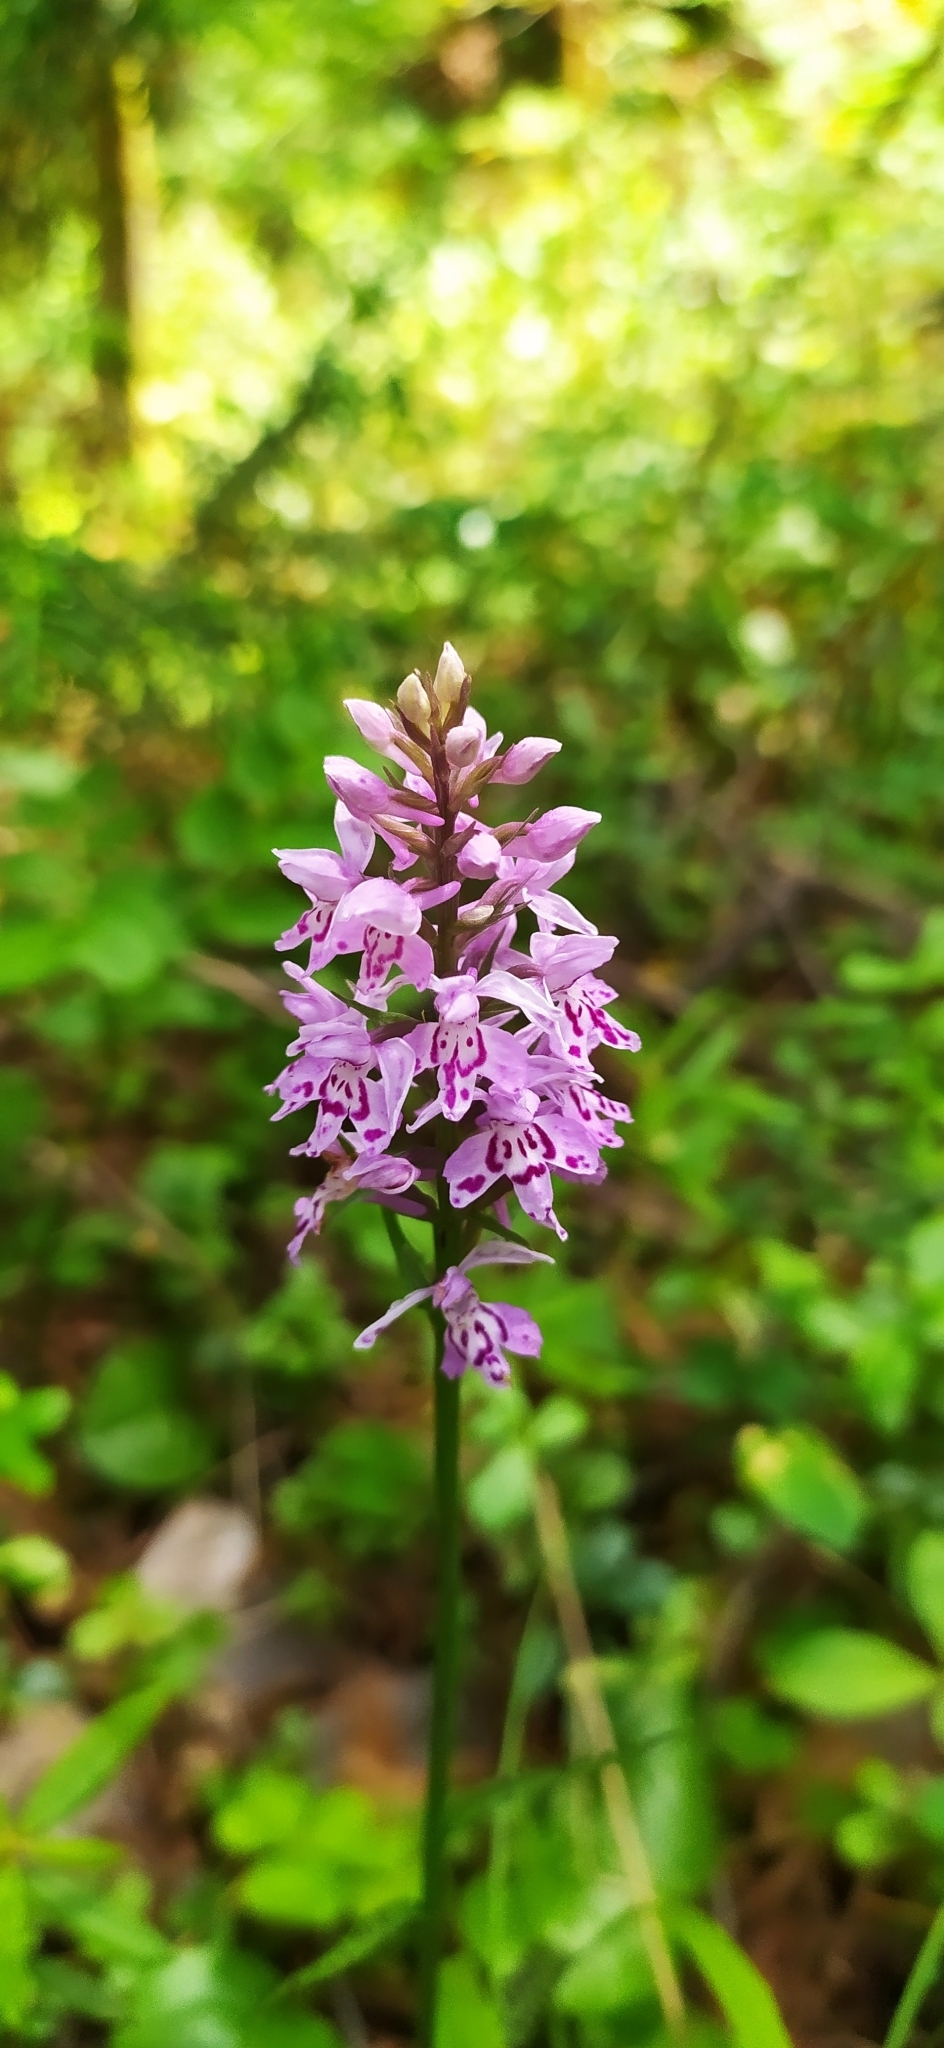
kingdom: Plantae
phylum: Tracheophyta
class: Liliopsida
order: Asparagales
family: Orchidaceae
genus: Dactylorhiza
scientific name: Dactylorhiza maculata
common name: Heath spotted-orchid
